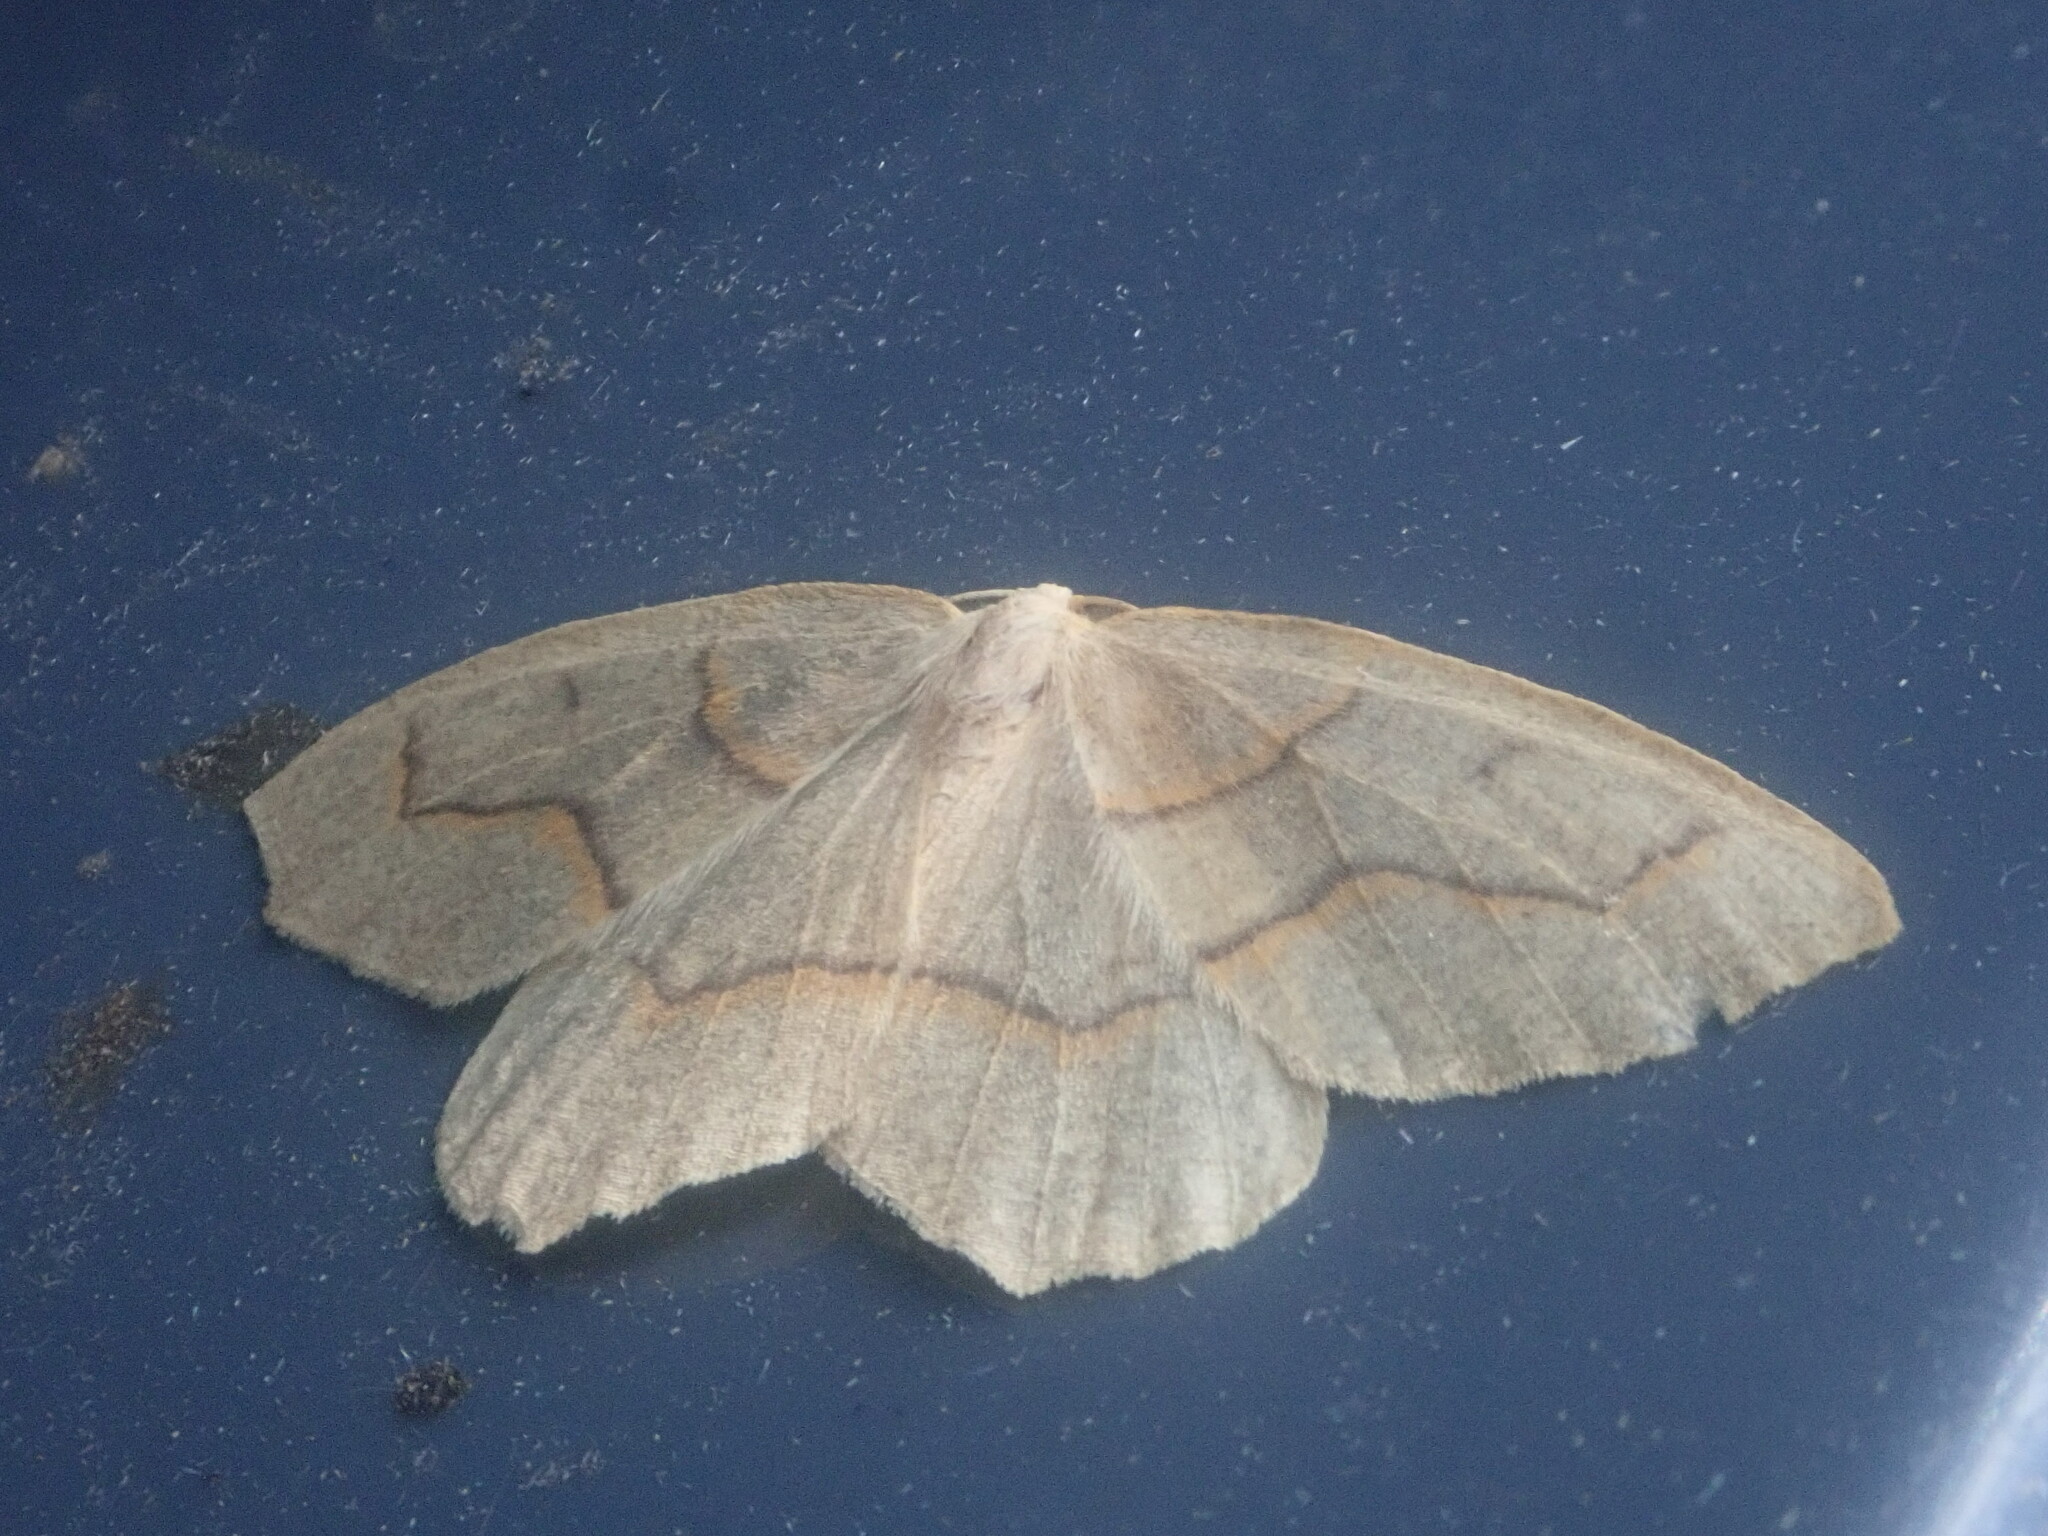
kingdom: Animalia
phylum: Arthropoda
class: Insecta
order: Lepidoptera
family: Geometridae
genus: Lambdina
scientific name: Lambdina fiscellaria
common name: Hemlock looper
